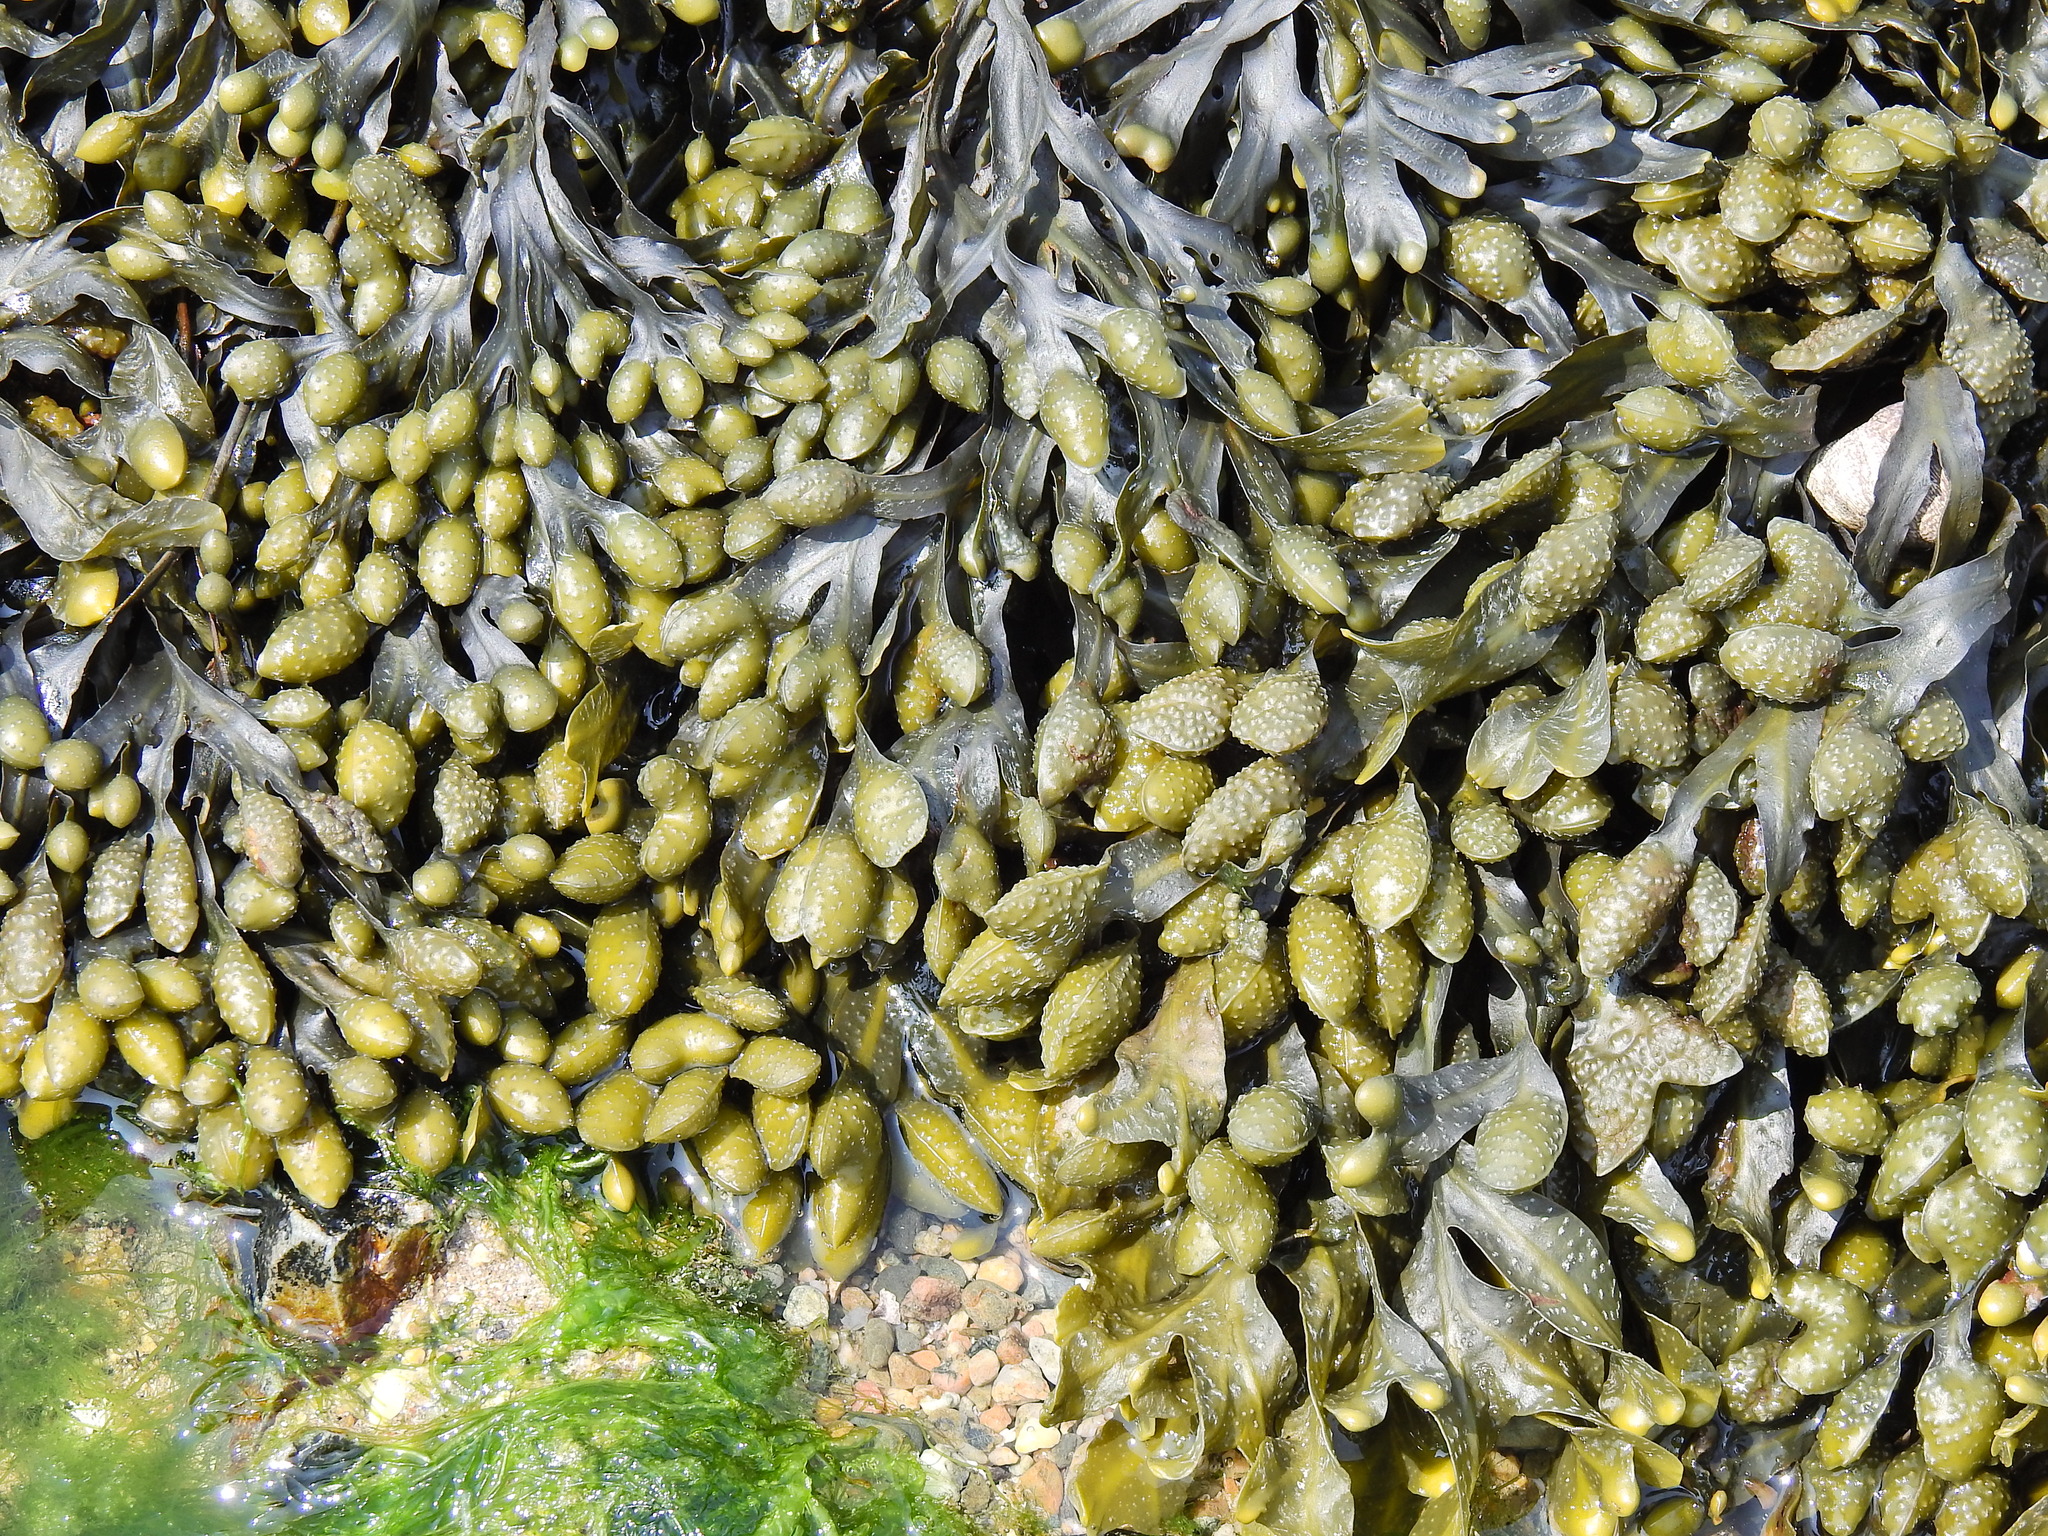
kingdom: Chromista
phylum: Ochrophyta
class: Phaeophyceae
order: Fucales
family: Fucaceae
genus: Fucus
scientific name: Fucus spiralis
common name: Spiral wrack
